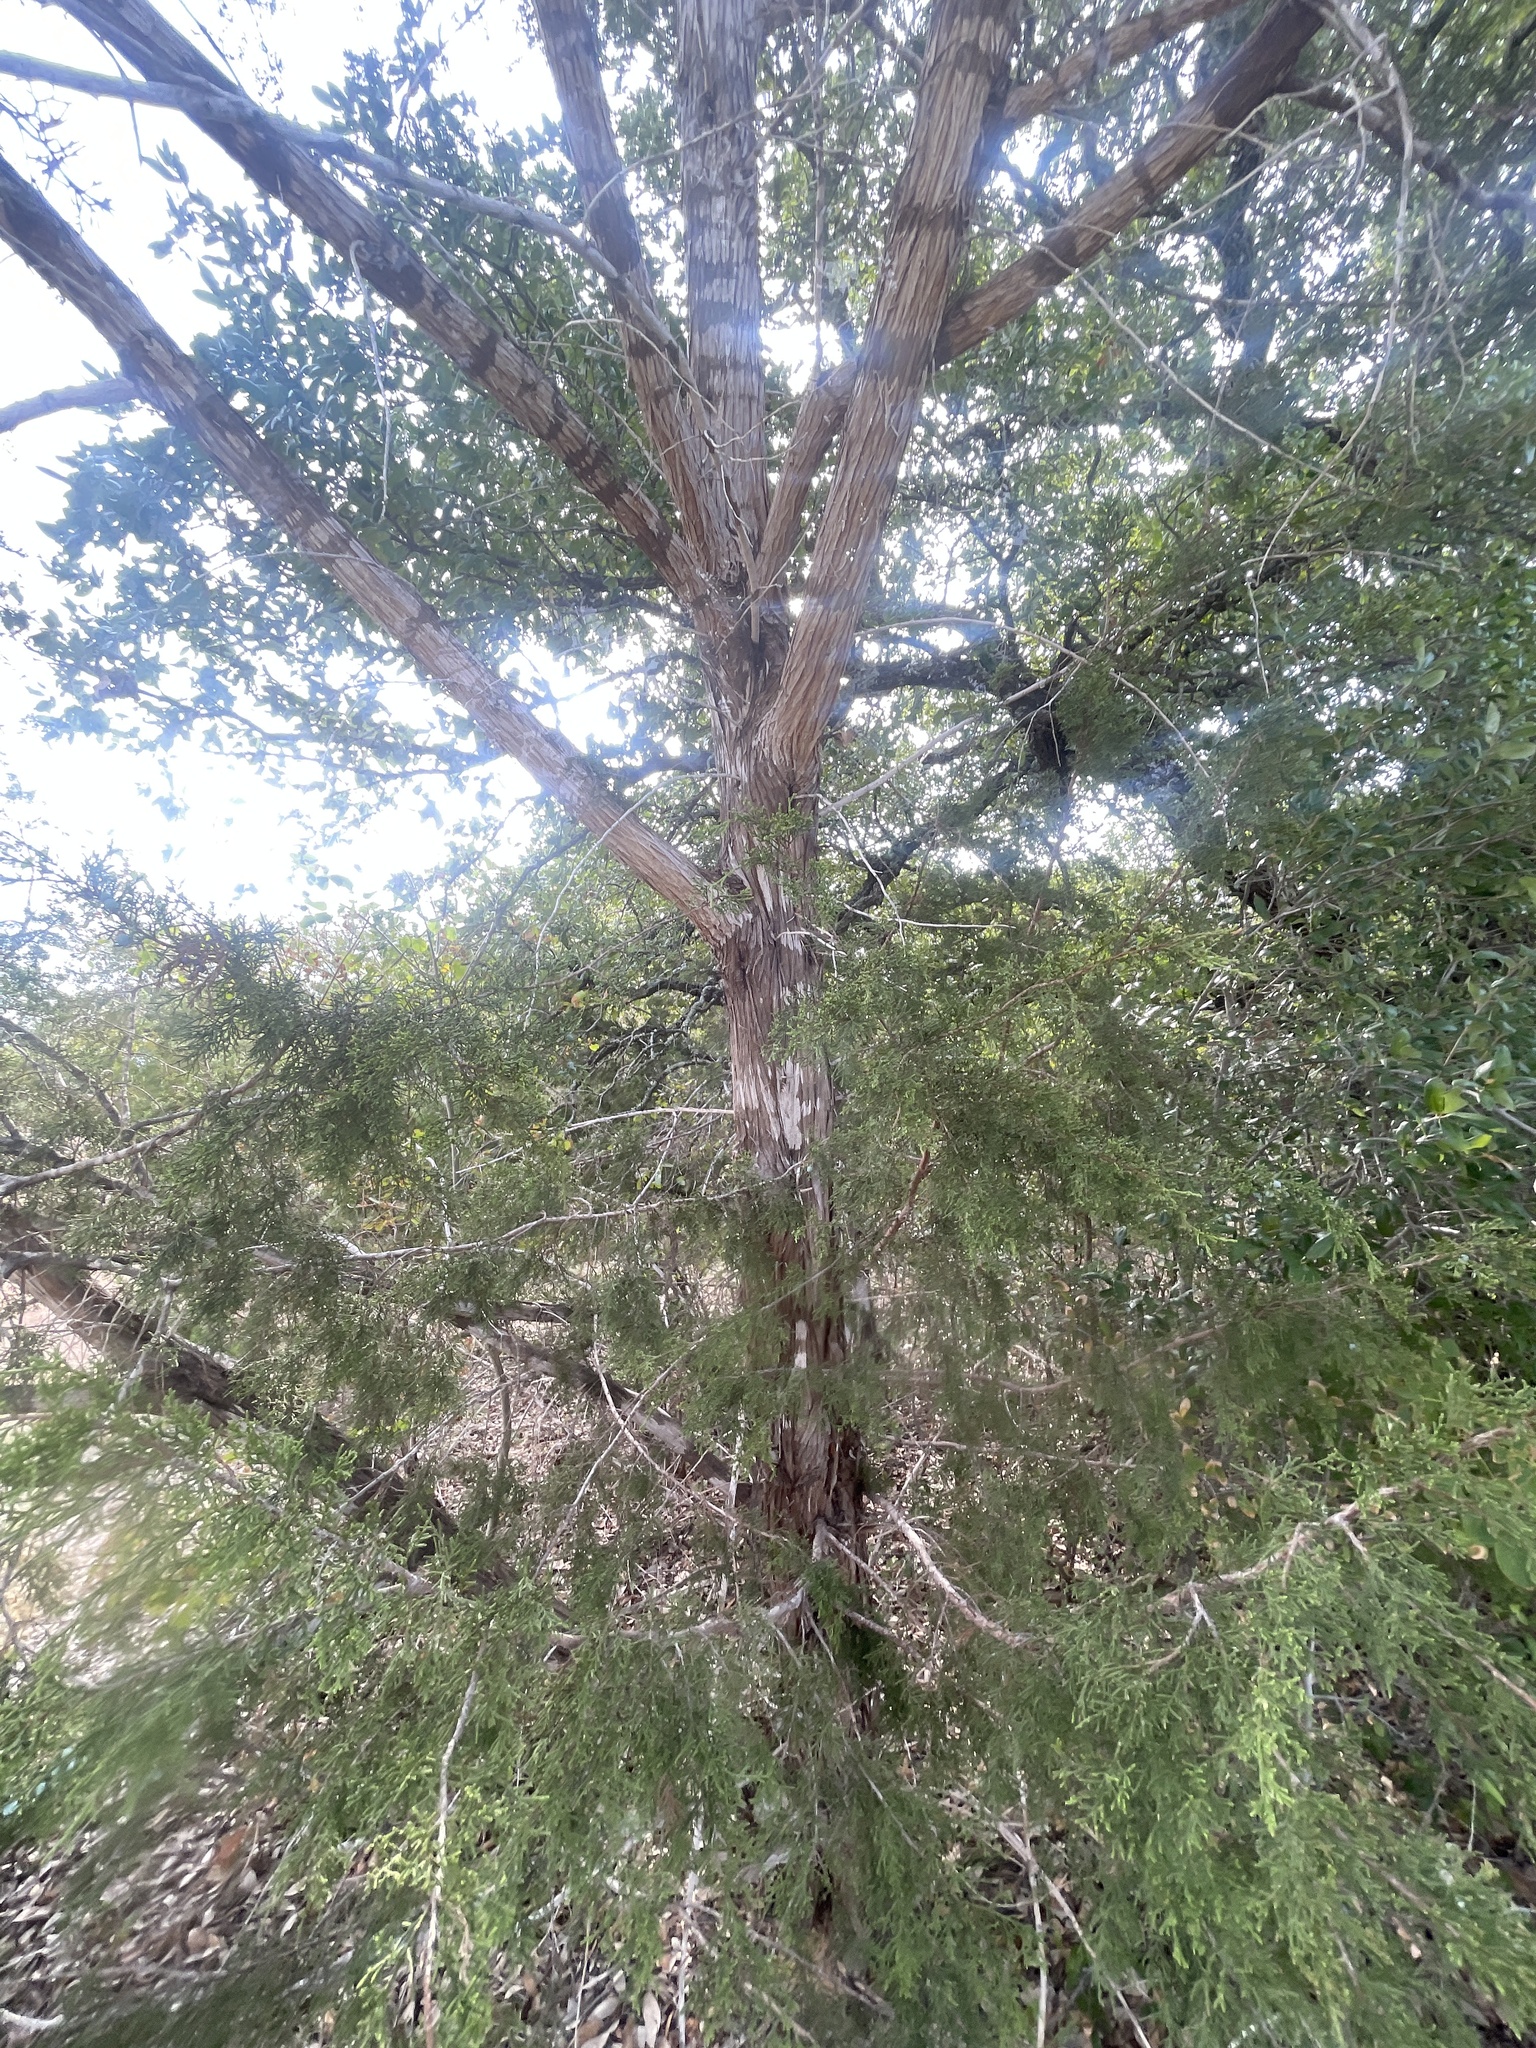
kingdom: Plantae
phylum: Tracheophyta
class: Pinopsida
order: Pinales
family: Cupressaceae
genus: Juniperus
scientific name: Juniperus ashei
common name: Mexican juniper
